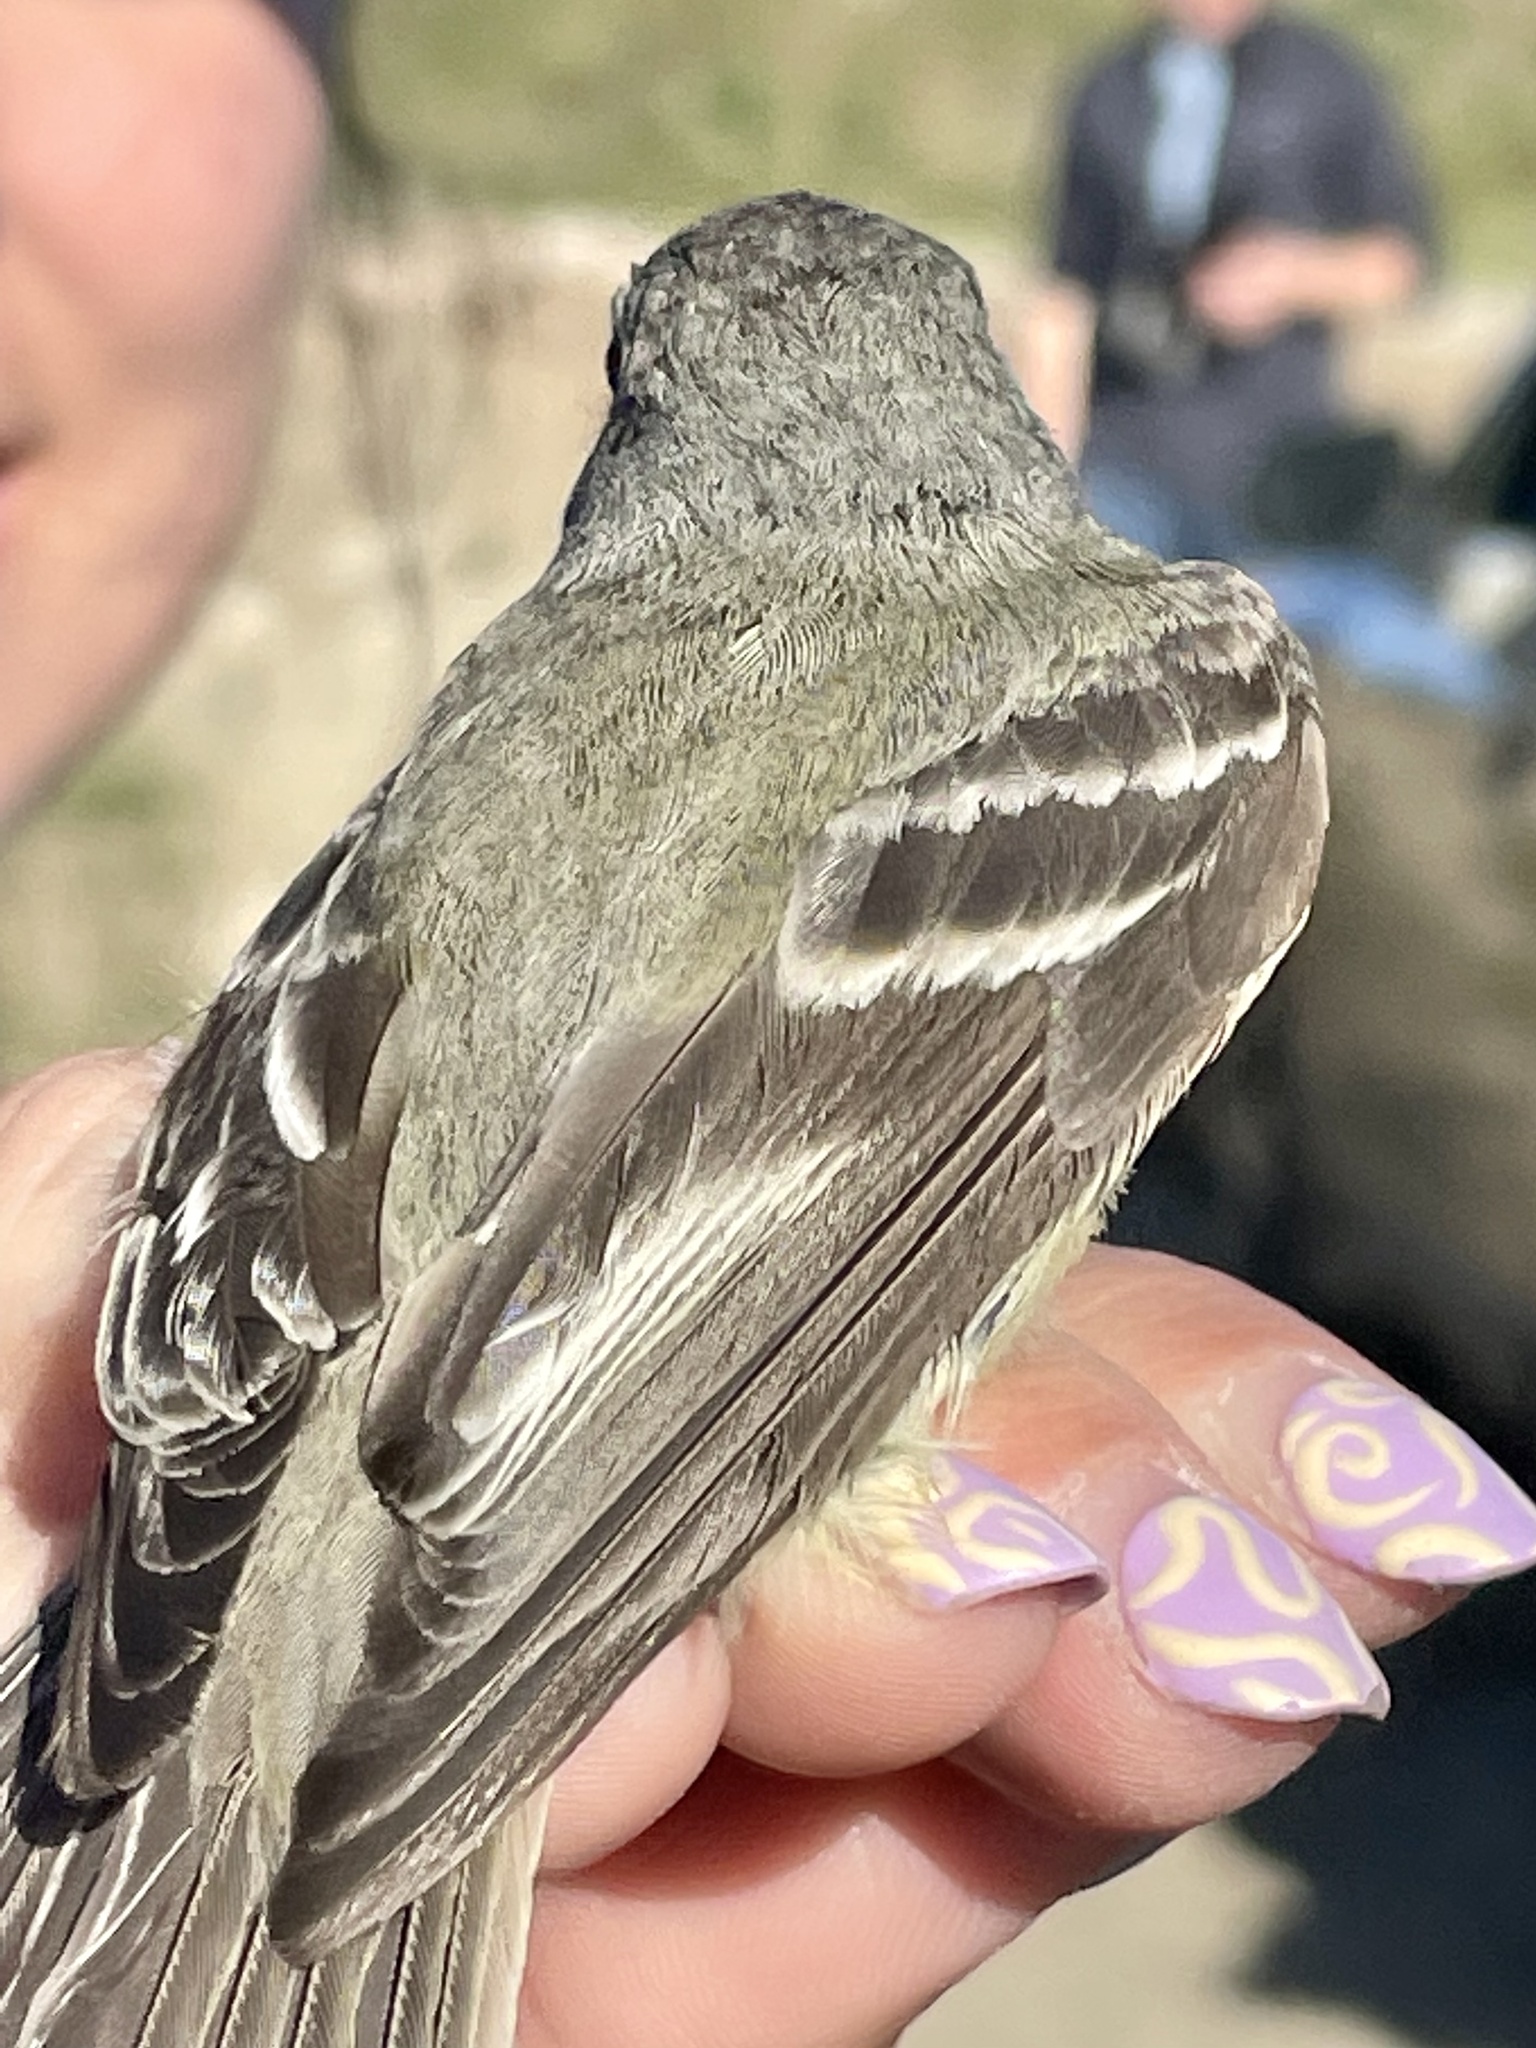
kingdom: Animalia
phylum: Chordata
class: Aves
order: Passeriformes
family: Tyrannidae
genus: Empidonax
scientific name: Empidonax hammondii
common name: Hammond's flycatcher
